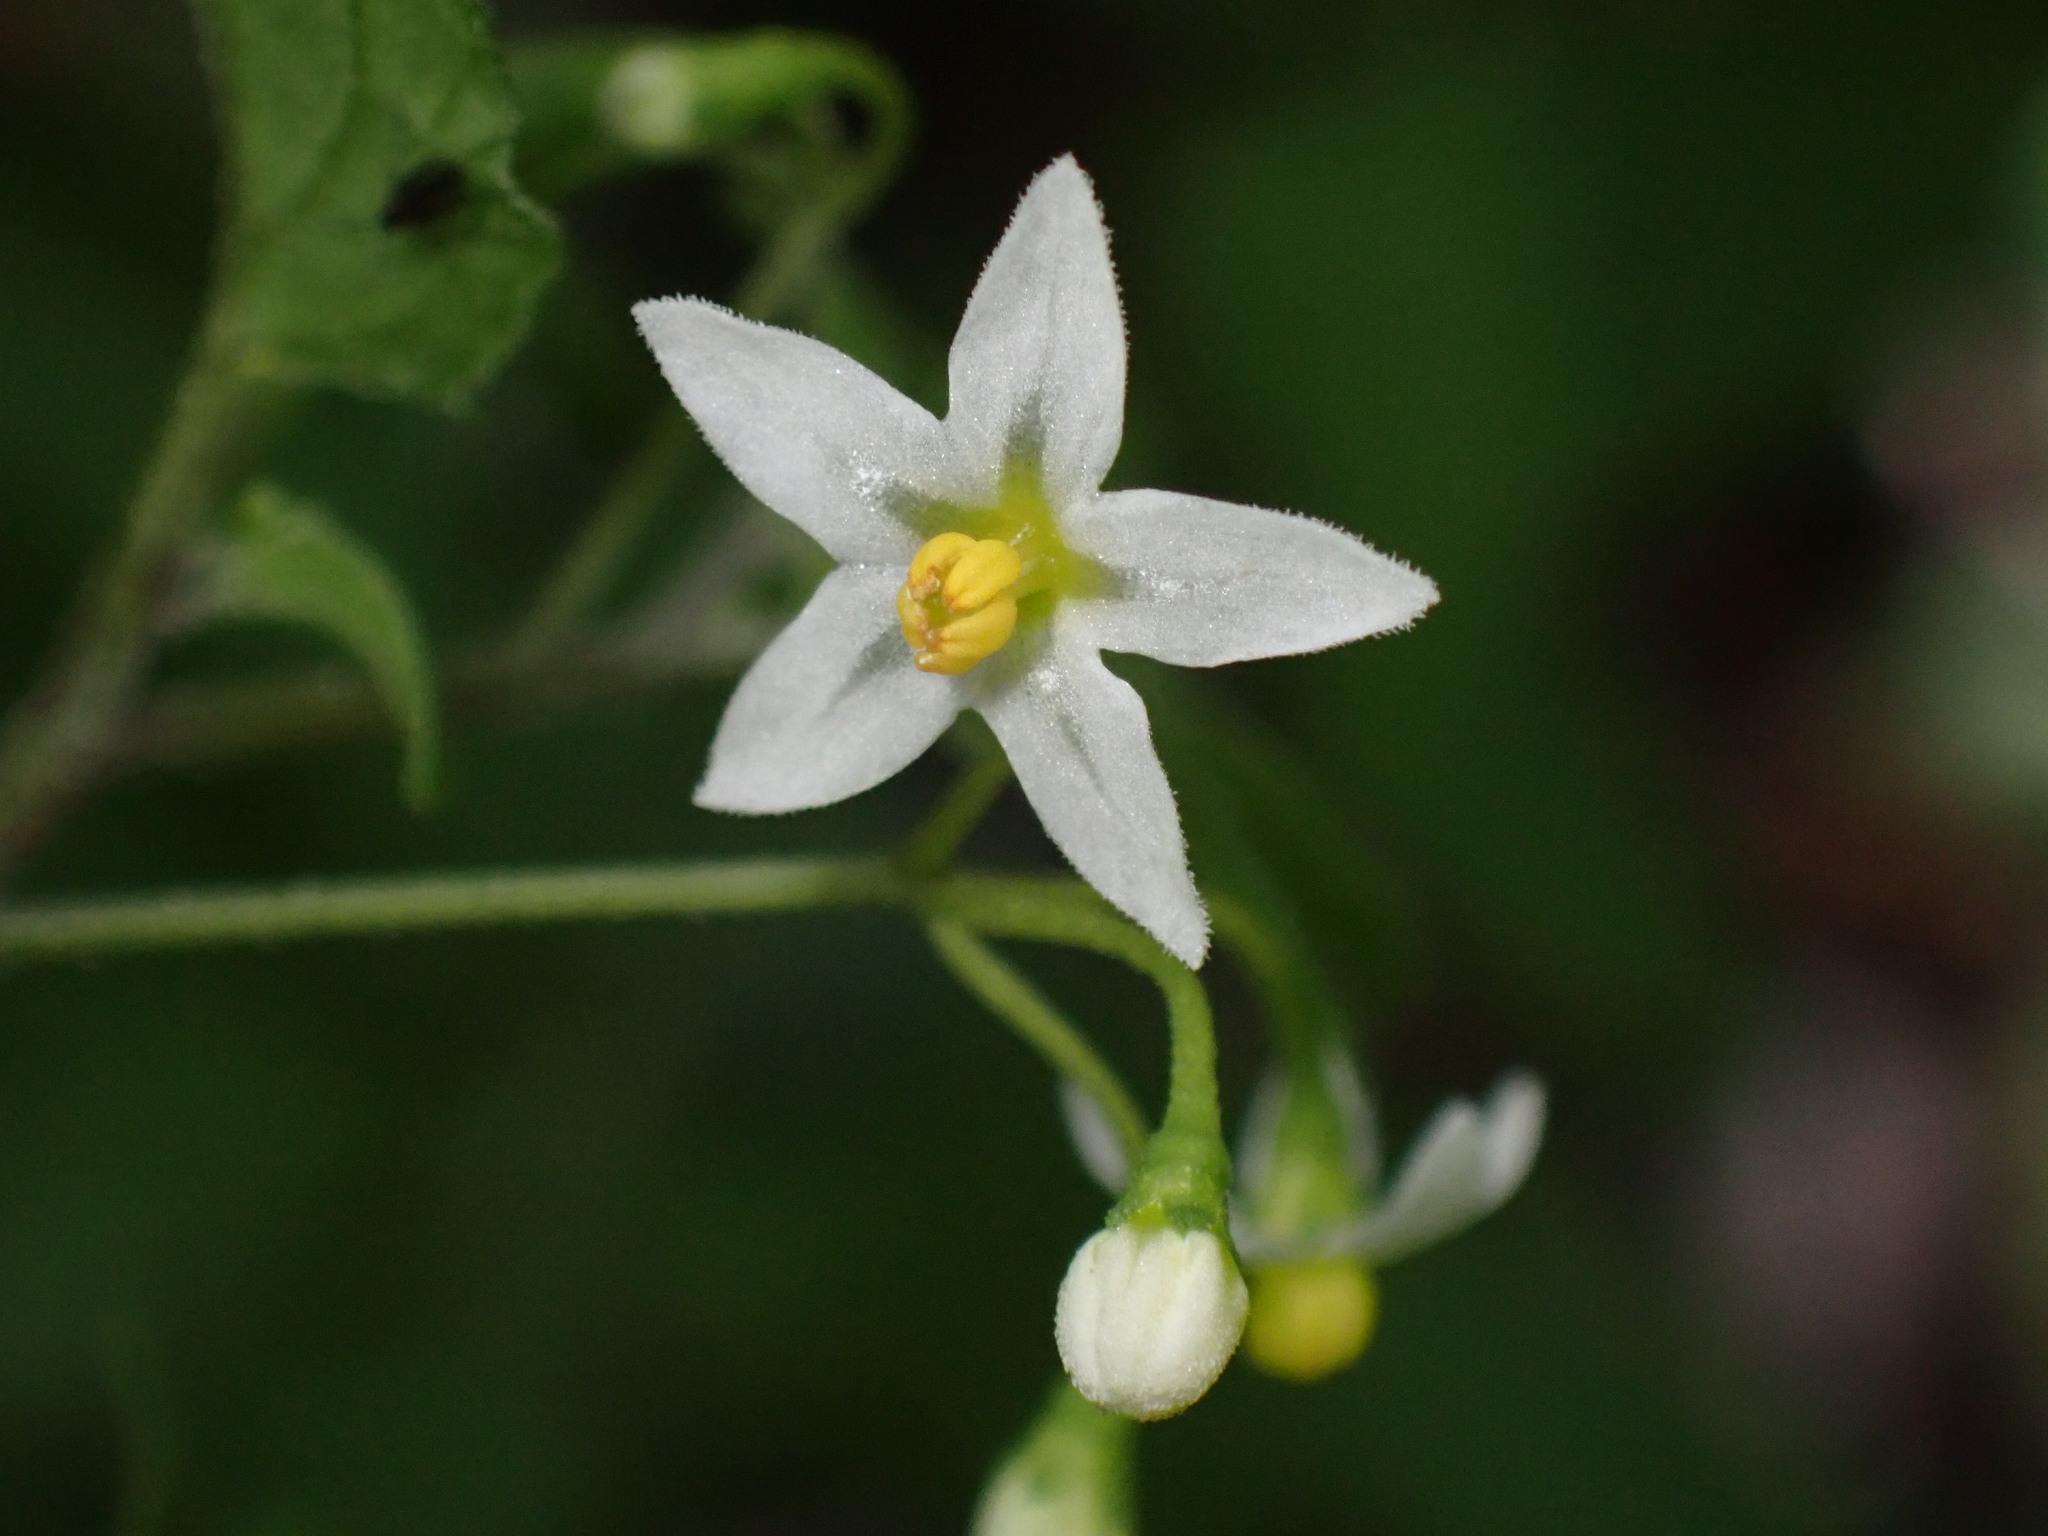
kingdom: Plantae
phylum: Tracheophyta
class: Magnoliopsida
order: Solanales
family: Solanaceae
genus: Solanum
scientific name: Solanum americanum
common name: American black nightshade
